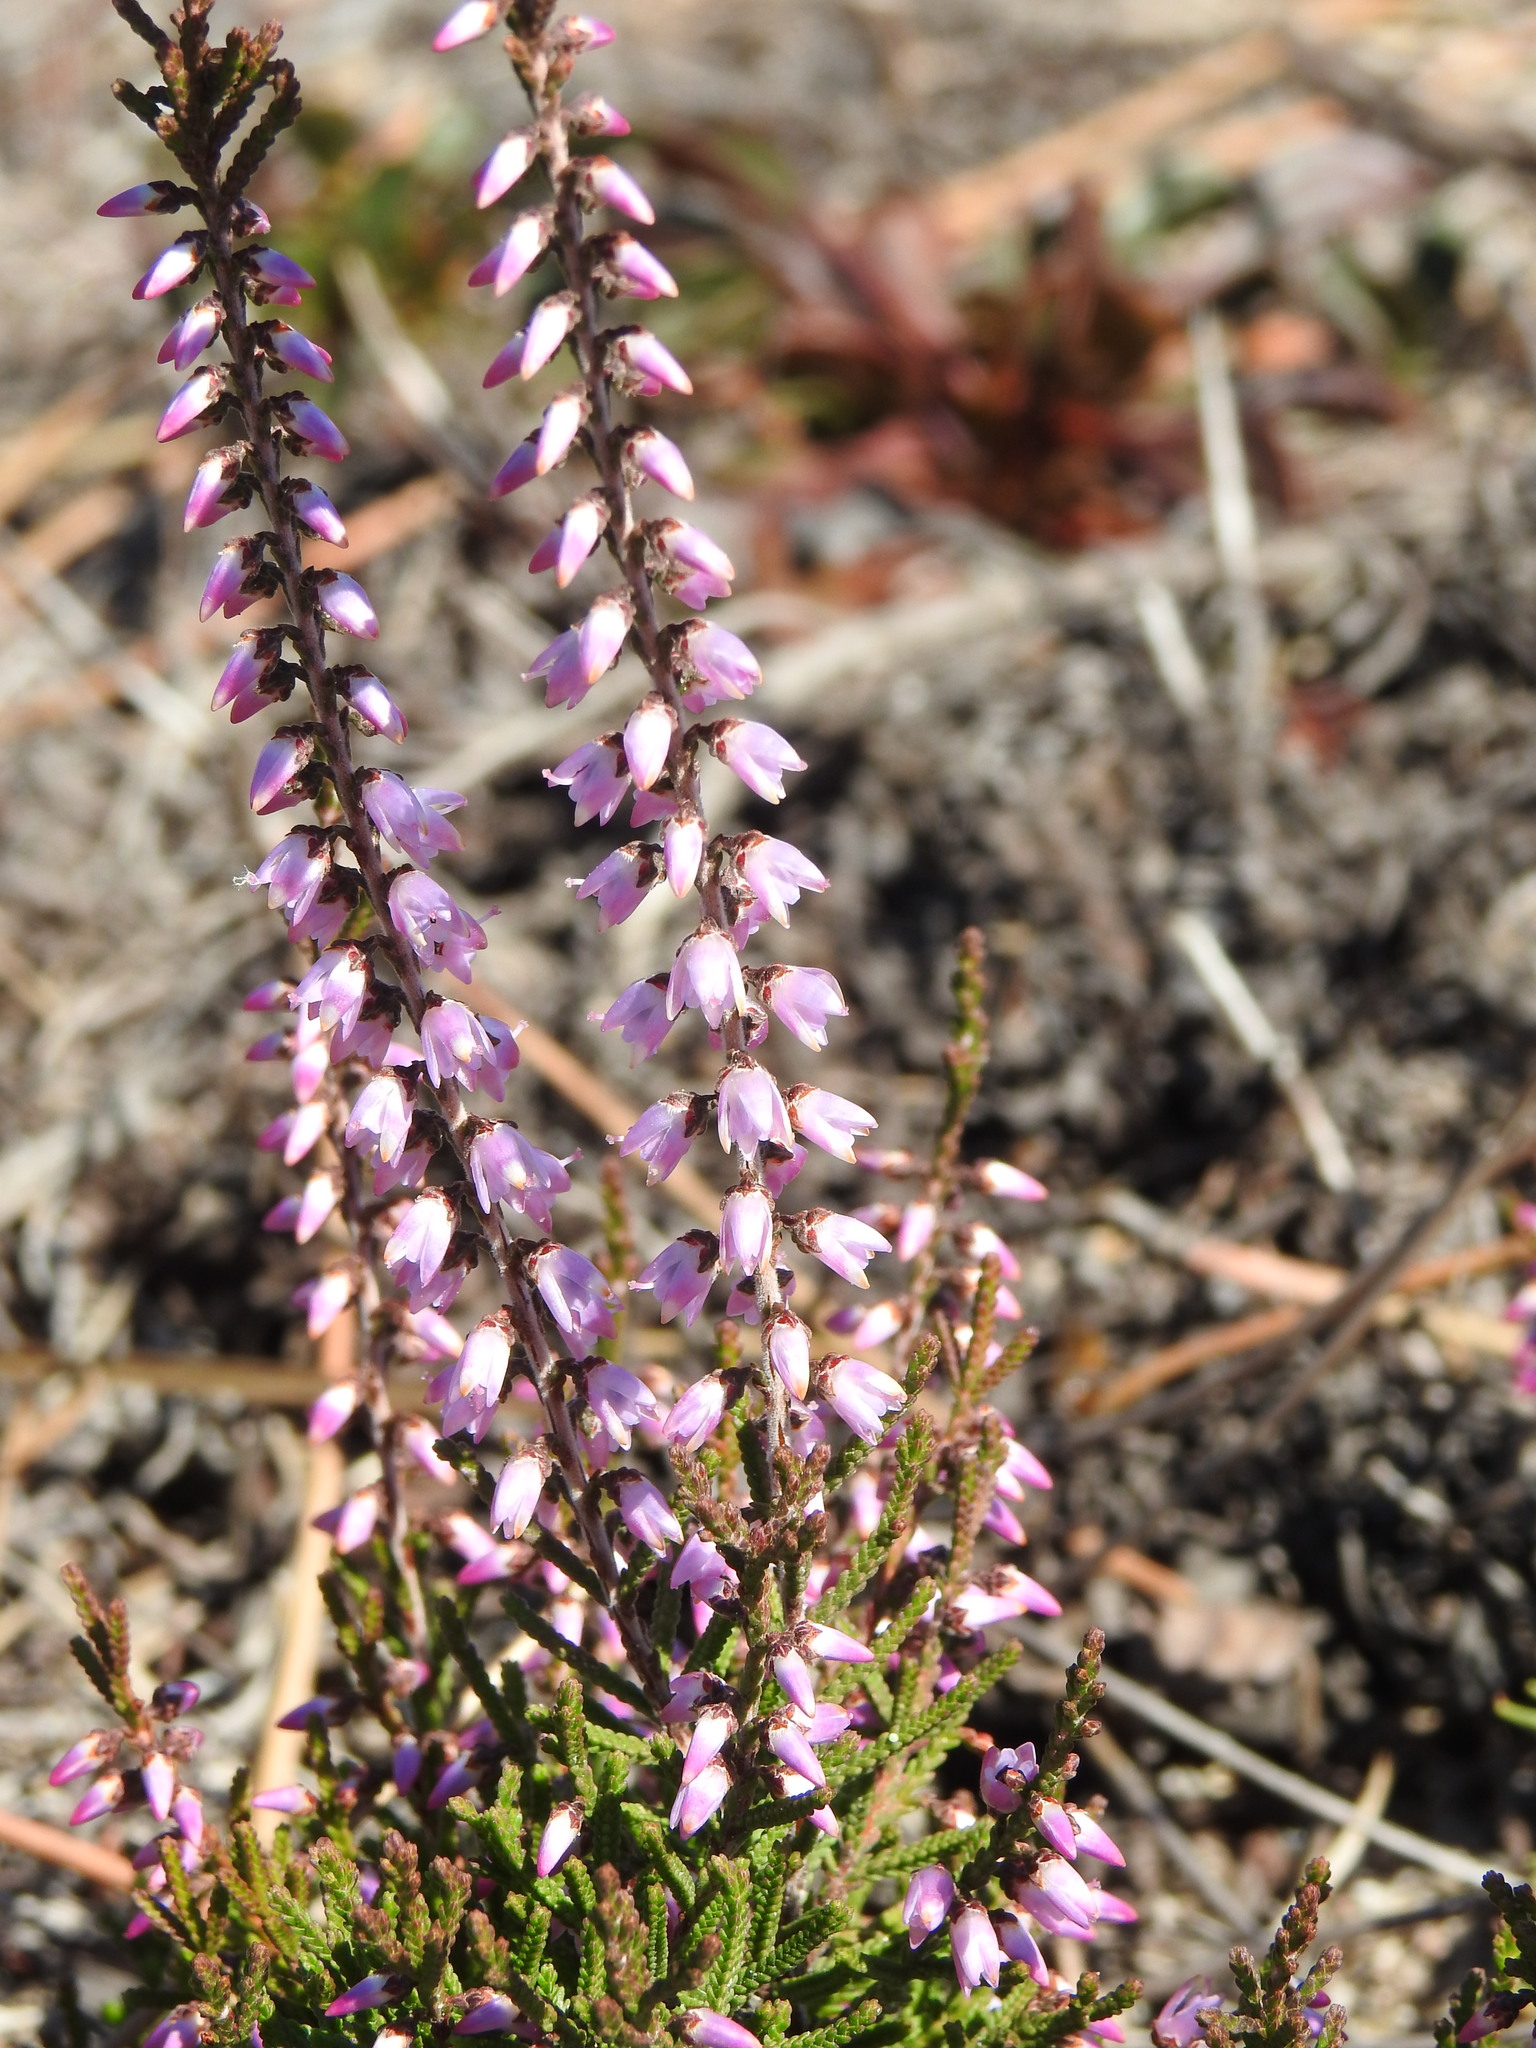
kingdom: Plantae
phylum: Tracheophyta
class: Magnoliopsida
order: Ericales
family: Ericaceae
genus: Calluna
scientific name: Calluna vulgaris
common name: Heather
